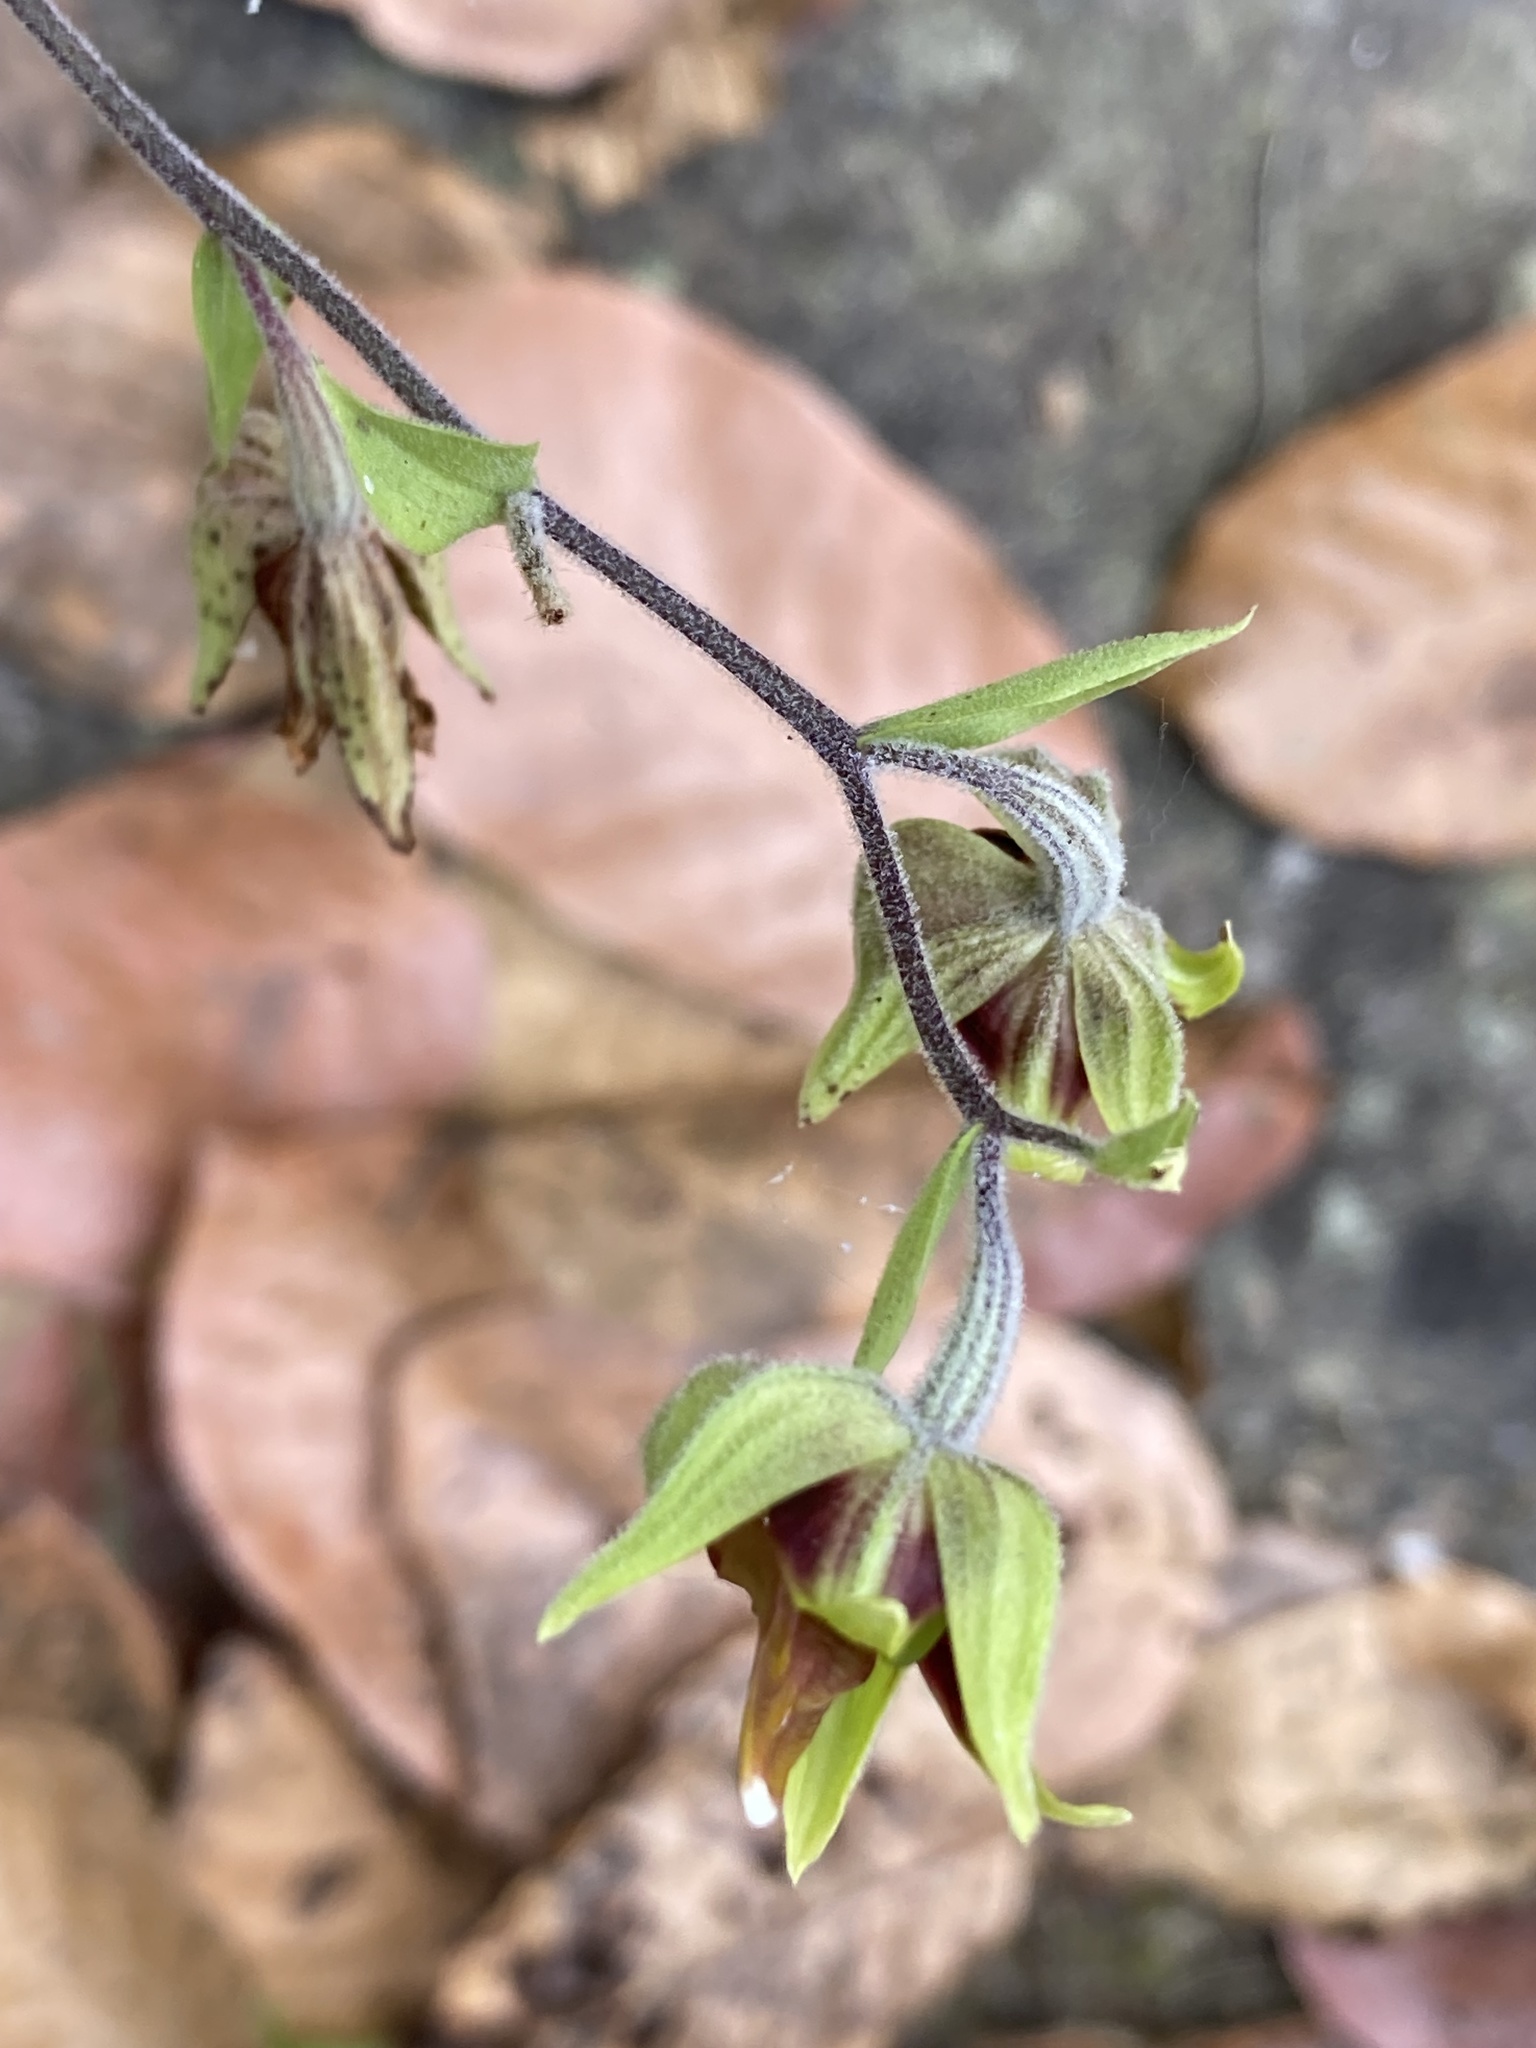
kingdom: Plantae
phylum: Tracheophyta
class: Liliopsida
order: Asparagales
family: Orchidaceae
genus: Epipactis
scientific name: Epipactis veratrifolia
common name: Eastern marsh helleborine
